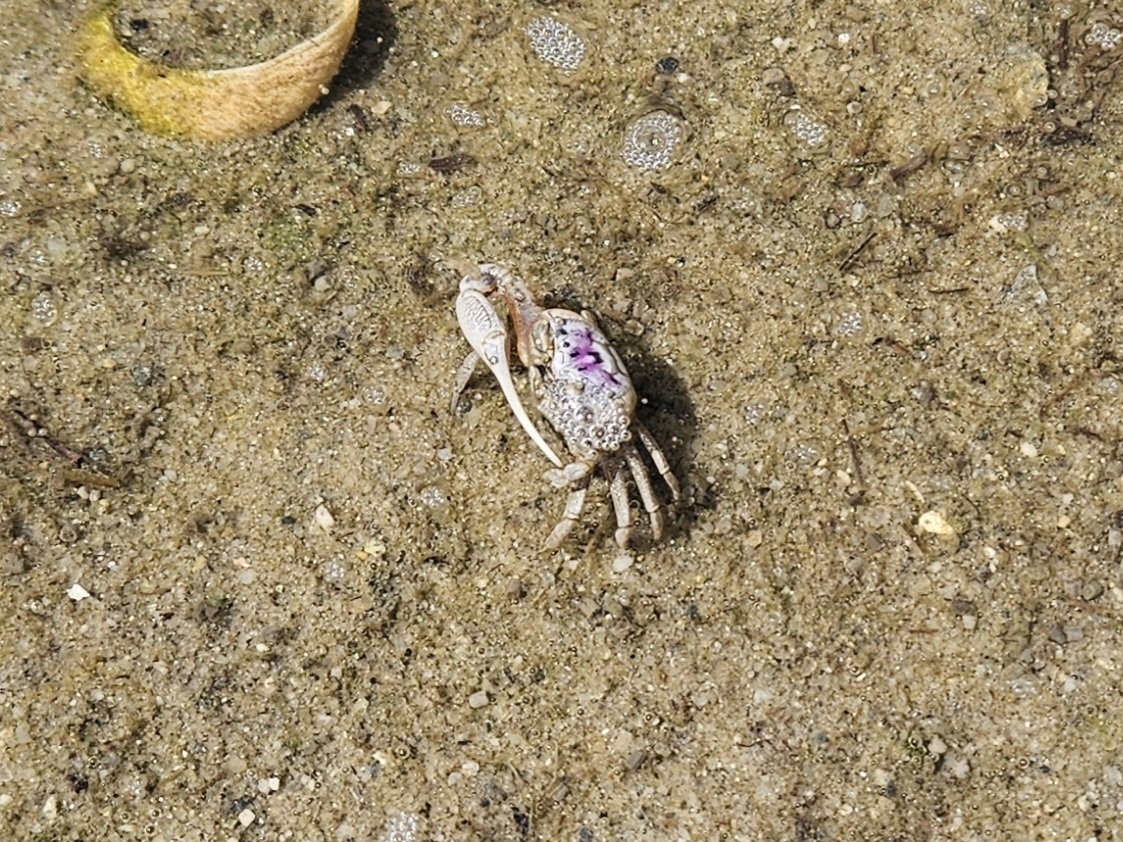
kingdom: Animalia
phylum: Arthropoda
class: Malacostraca
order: Decapoda
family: Ocypodidae
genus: Leptuca
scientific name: Leptuca pugilator
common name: Atlantic sand fiddler crab
